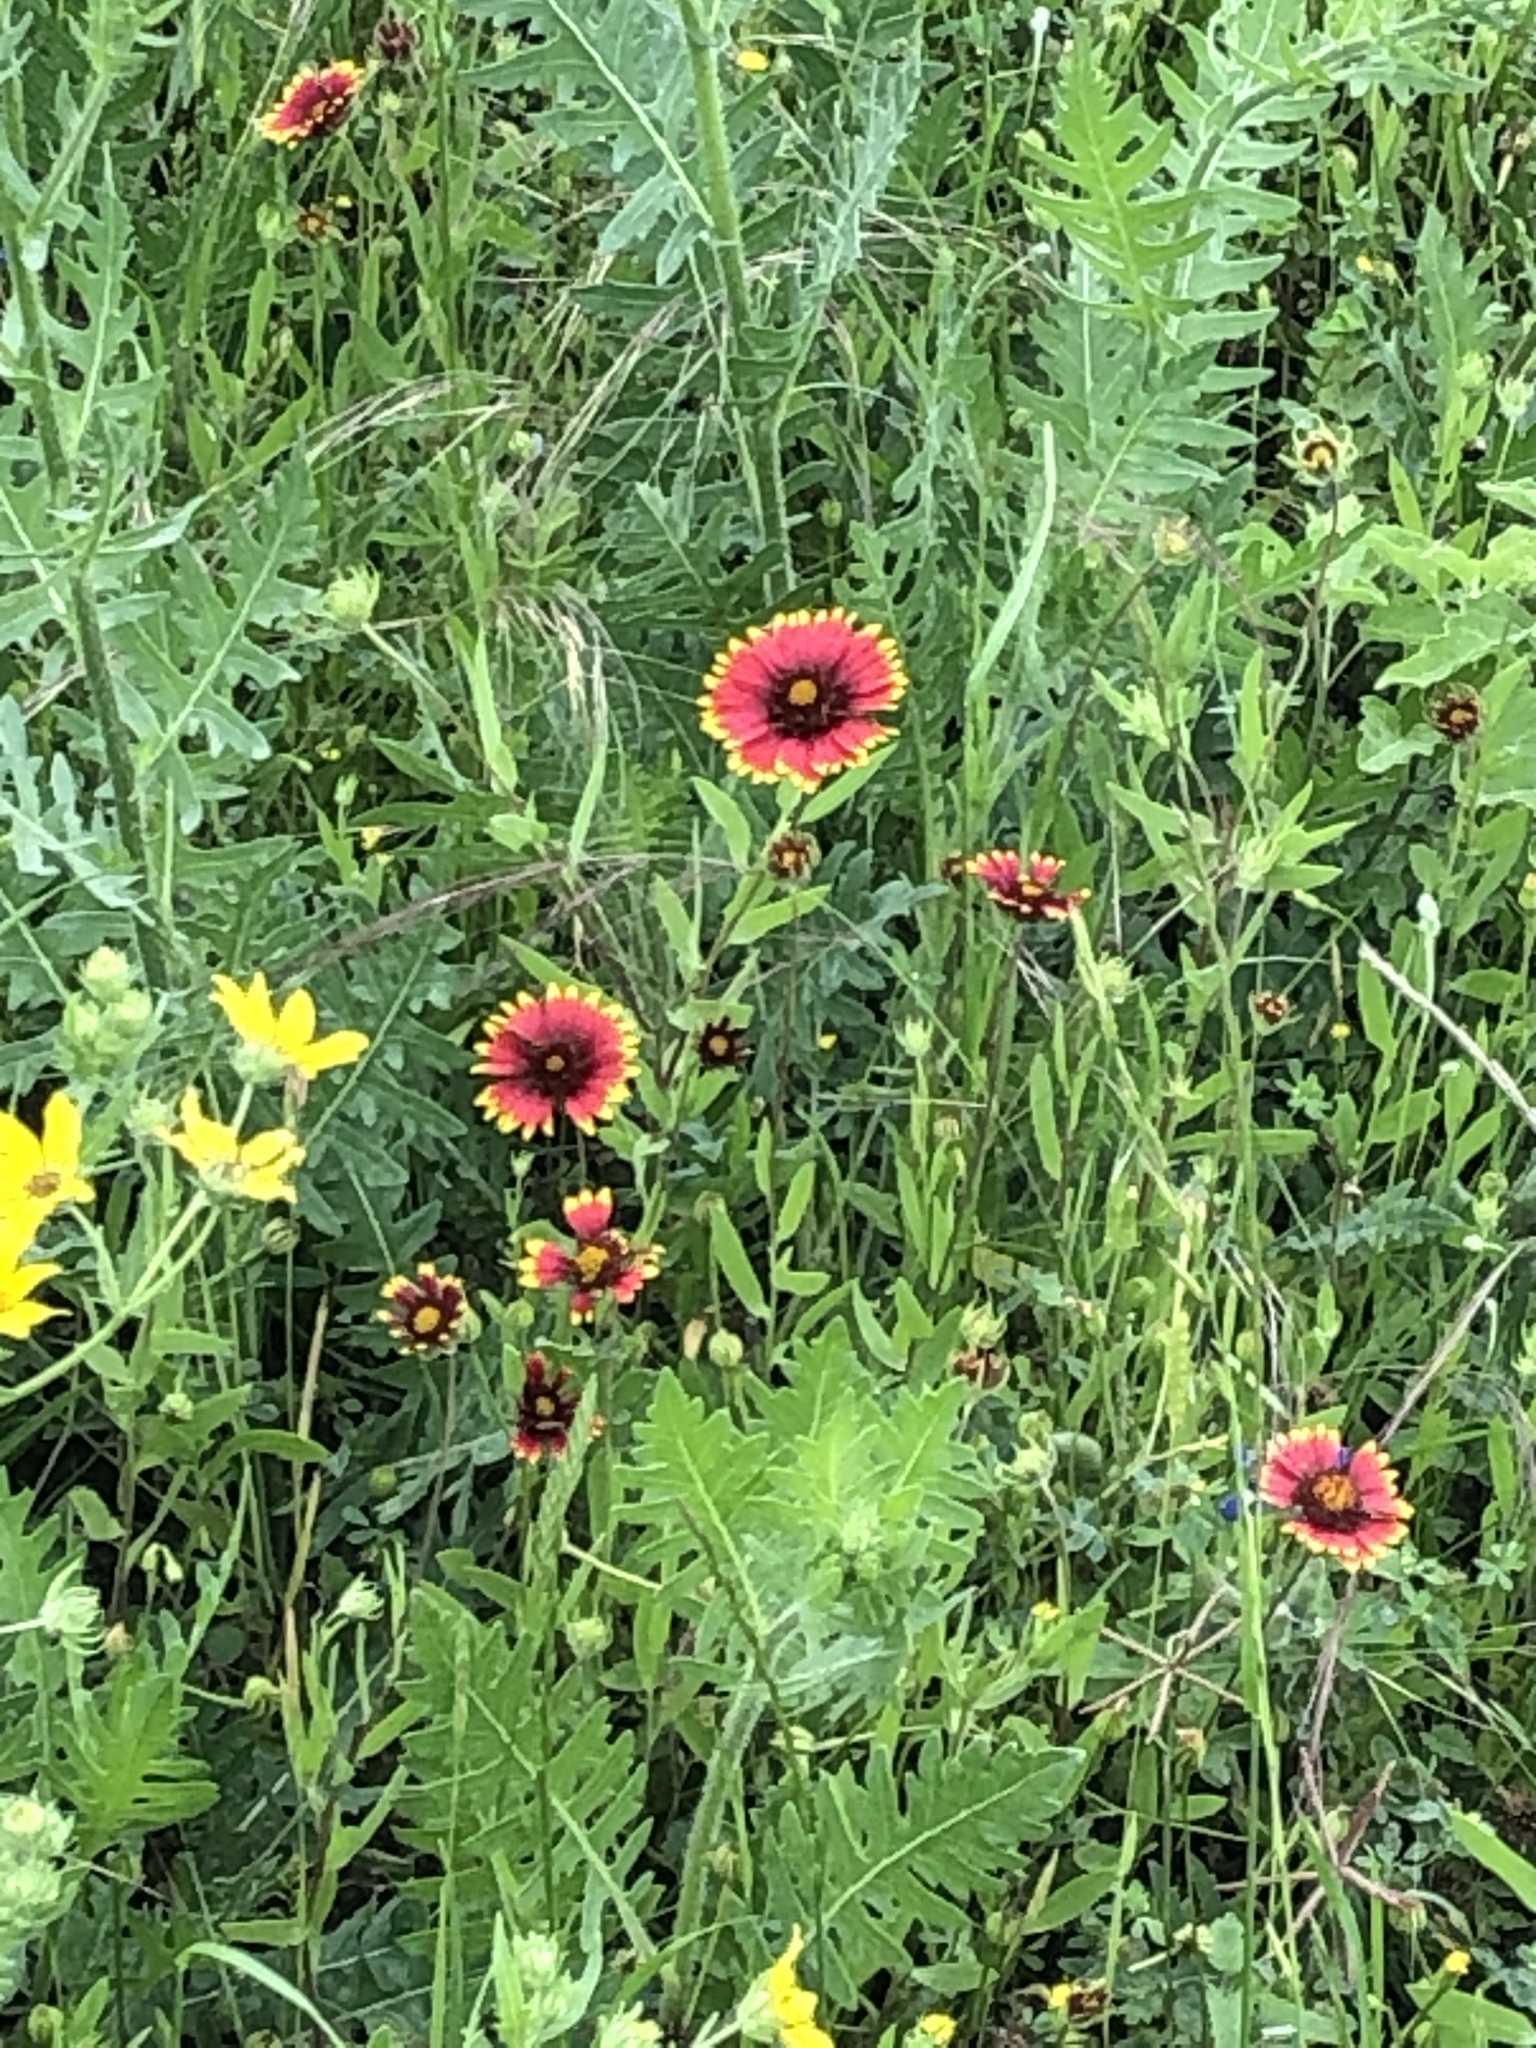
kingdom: Plantae
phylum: Tracheophyta
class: Magnoliopsida
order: Asterales
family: Asteraceae
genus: Gaillardia
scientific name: Gaillardia pulchella
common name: Firewheel
